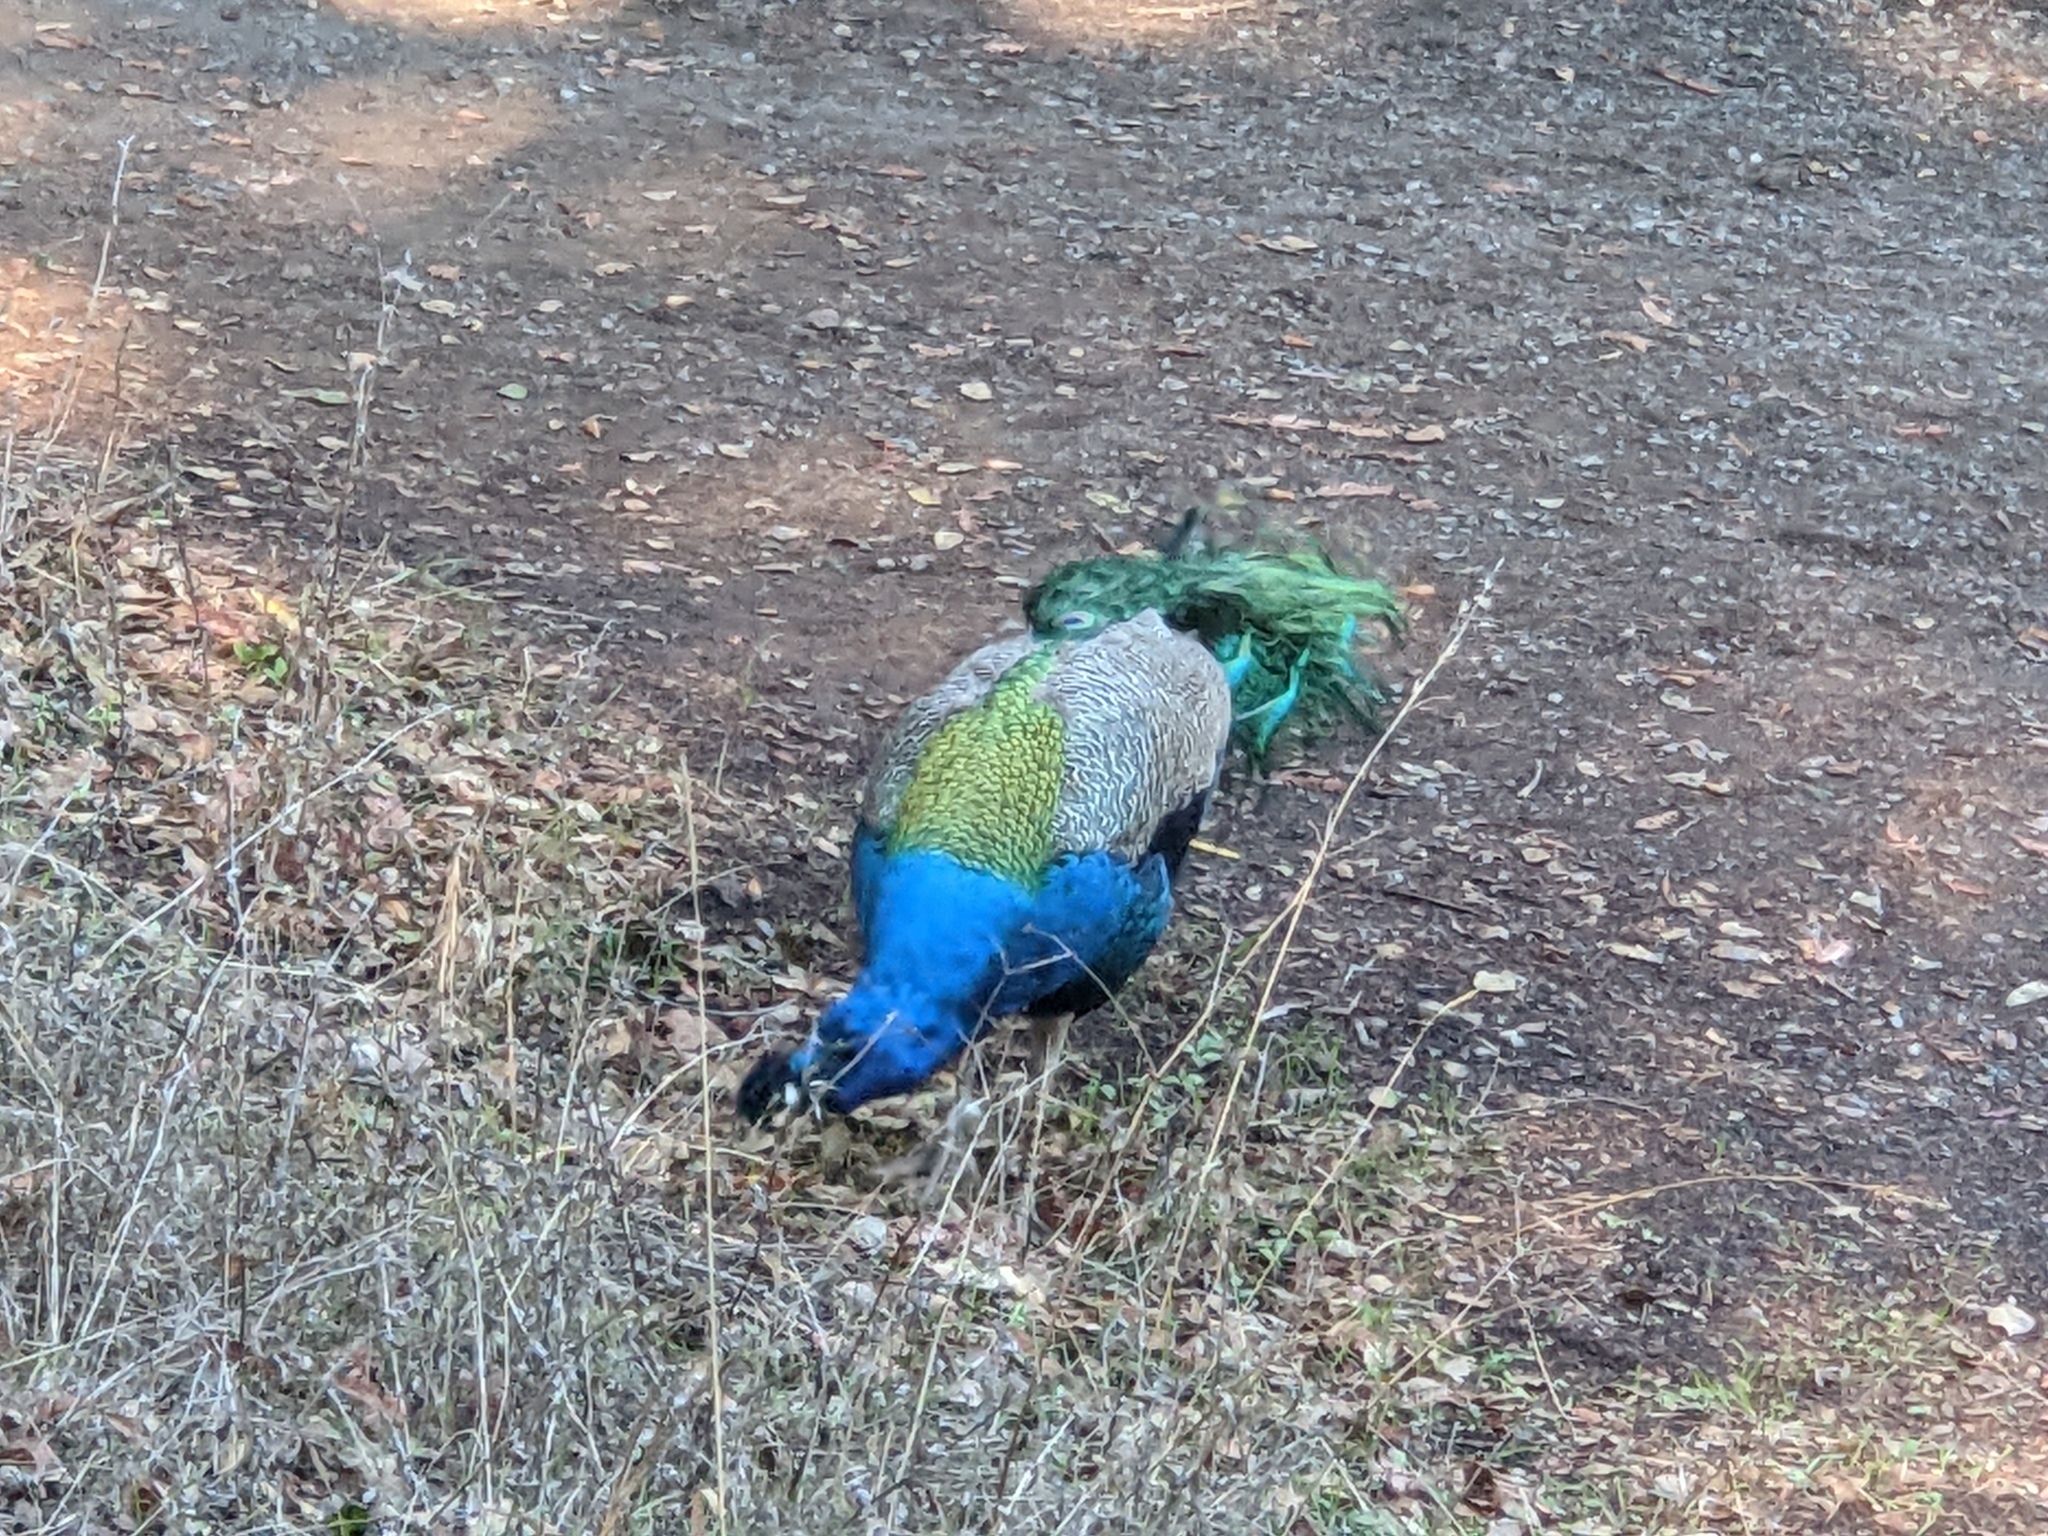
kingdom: Animalia
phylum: Chordata
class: Aves
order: Galliformes
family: Phasianidae
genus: Pavo
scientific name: Pavo cristatus
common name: Indian peafowl
